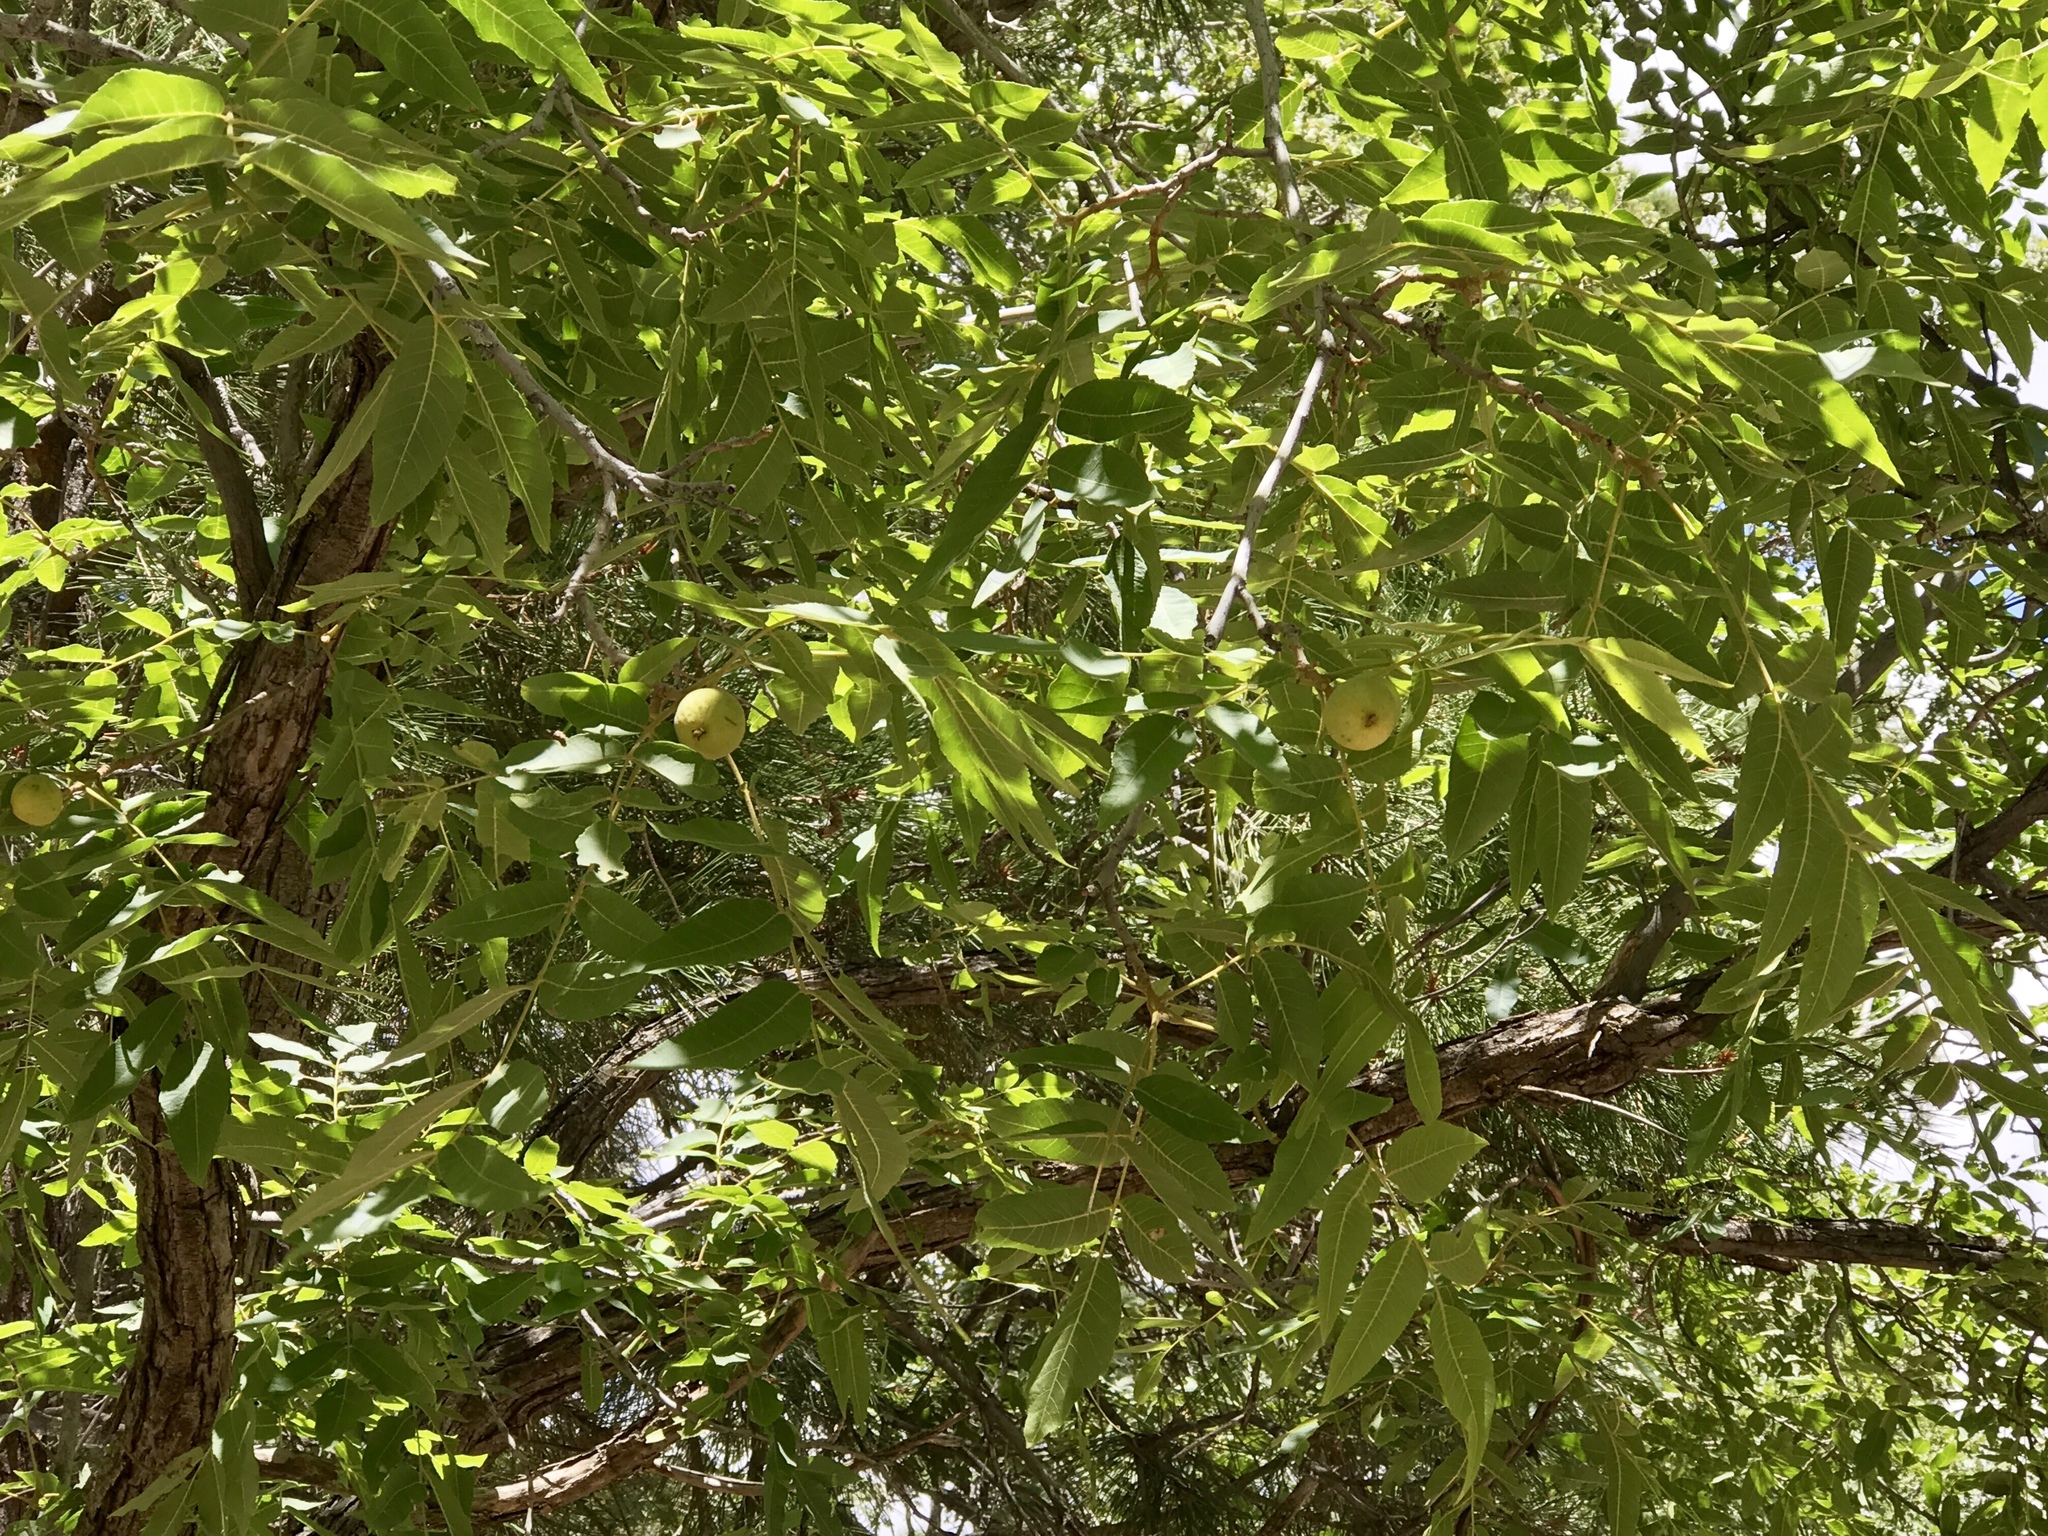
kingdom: Plantae
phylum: Tracheophyta
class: Magnoliopsida
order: Fagales
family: Juglandaceae
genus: Juglans
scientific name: Juglans major
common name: Arizona walnut
